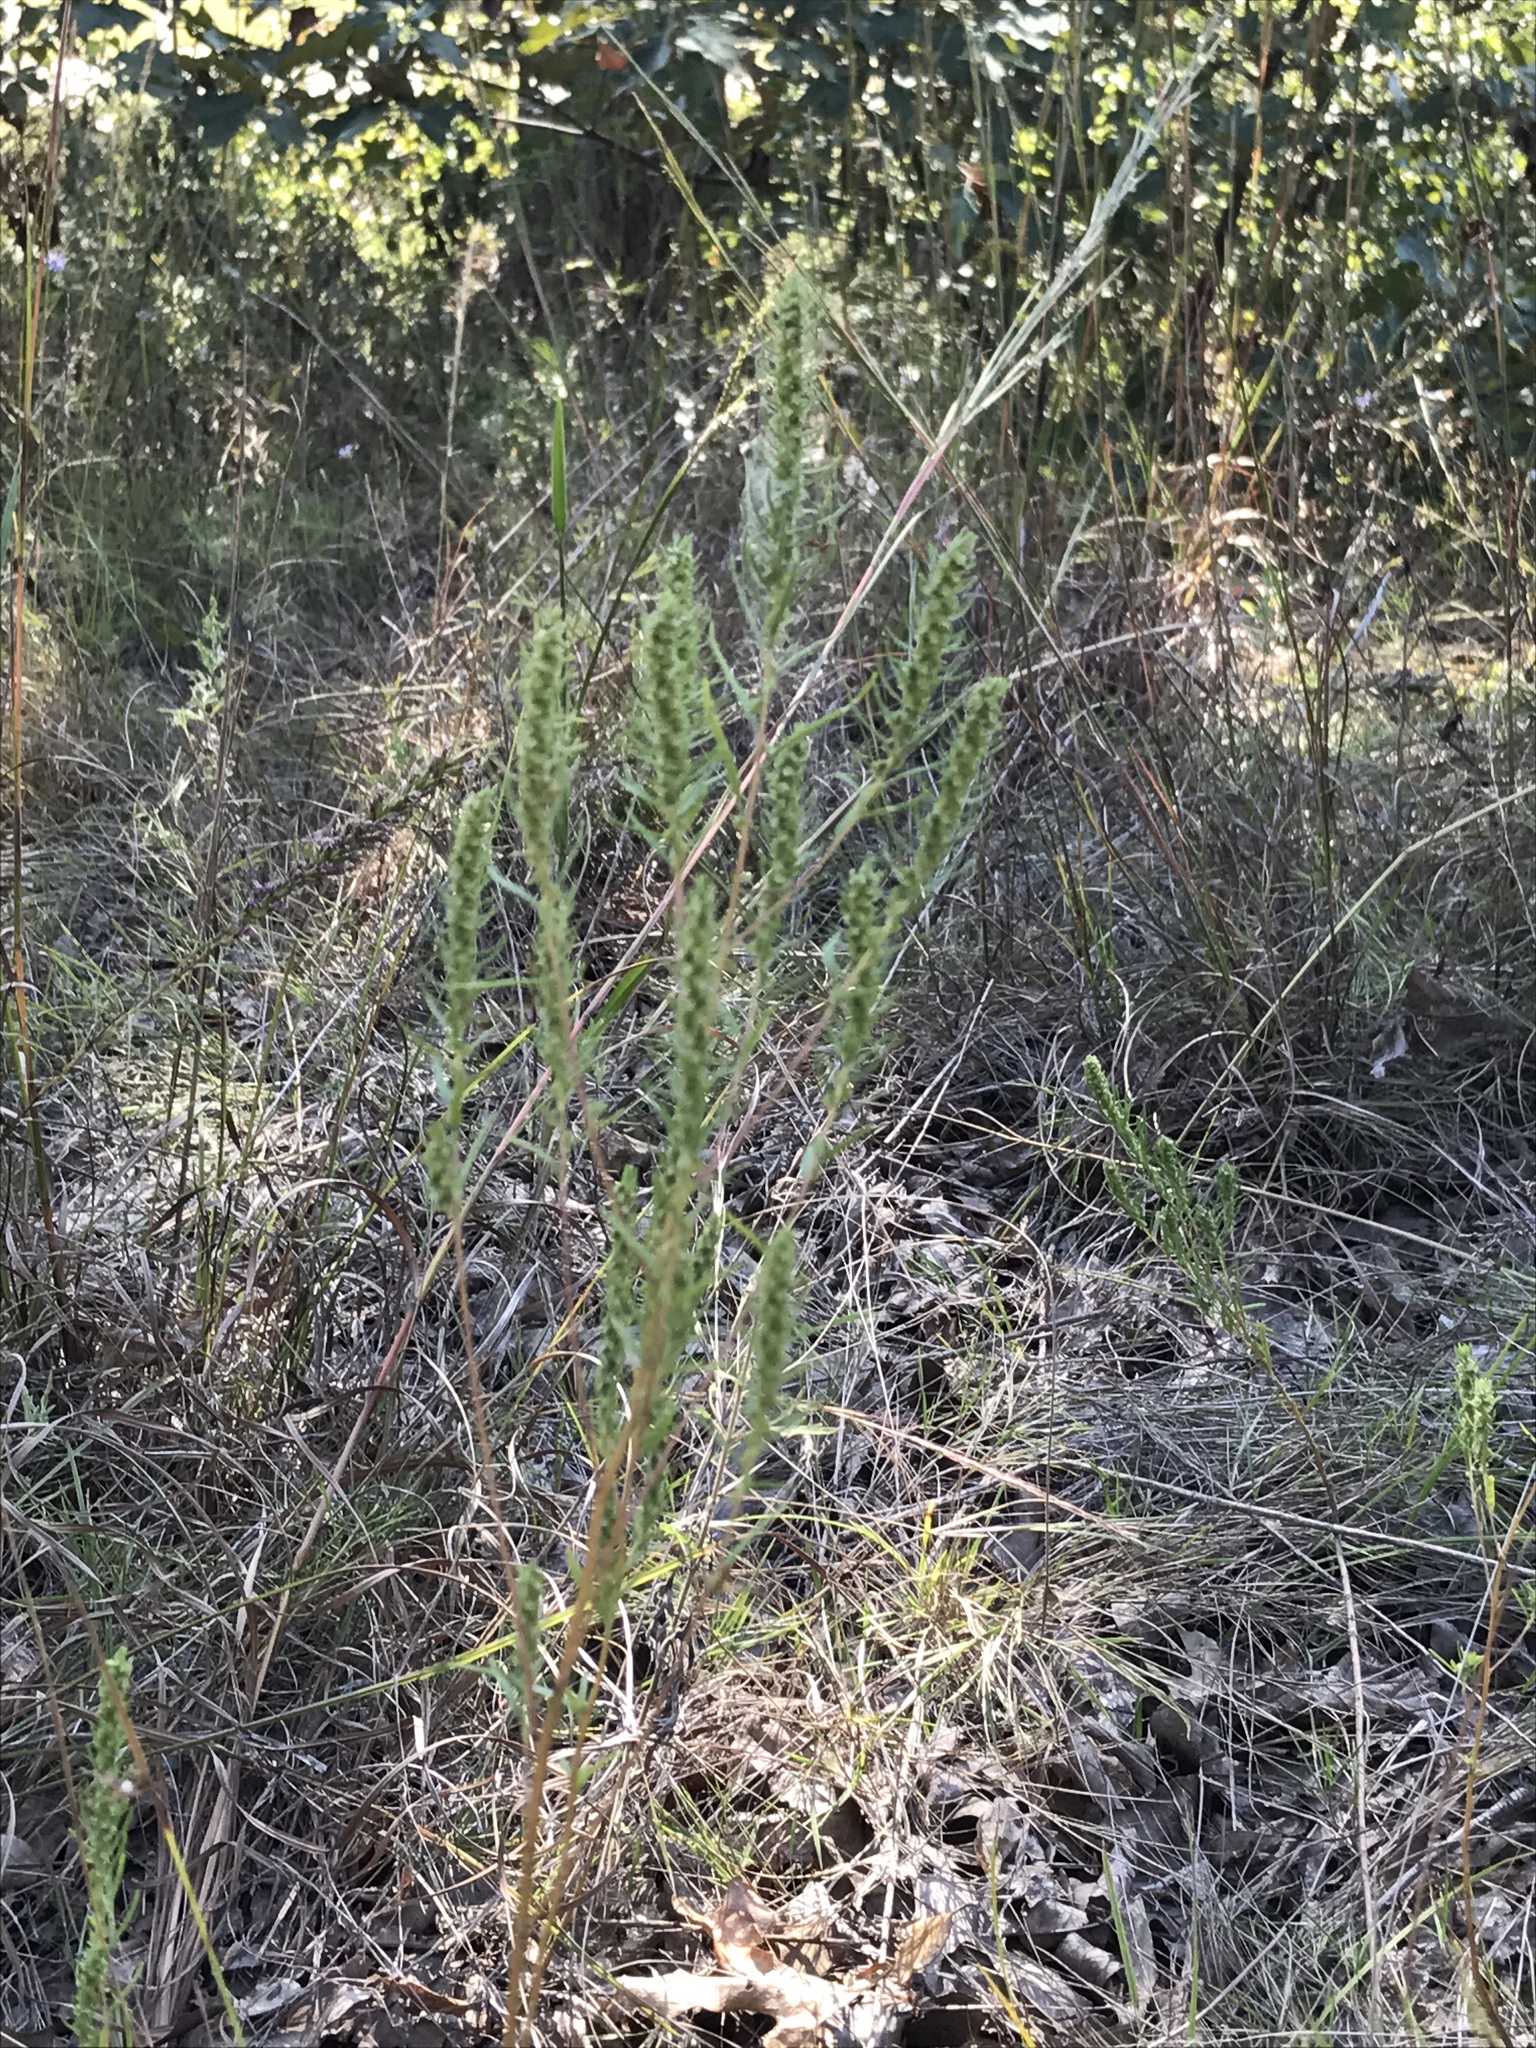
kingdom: Plantae
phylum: Tracheophyta
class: Magnoliopsida
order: Asterales
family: Asteraceae
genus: Iva
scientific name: Iva asperifolia
